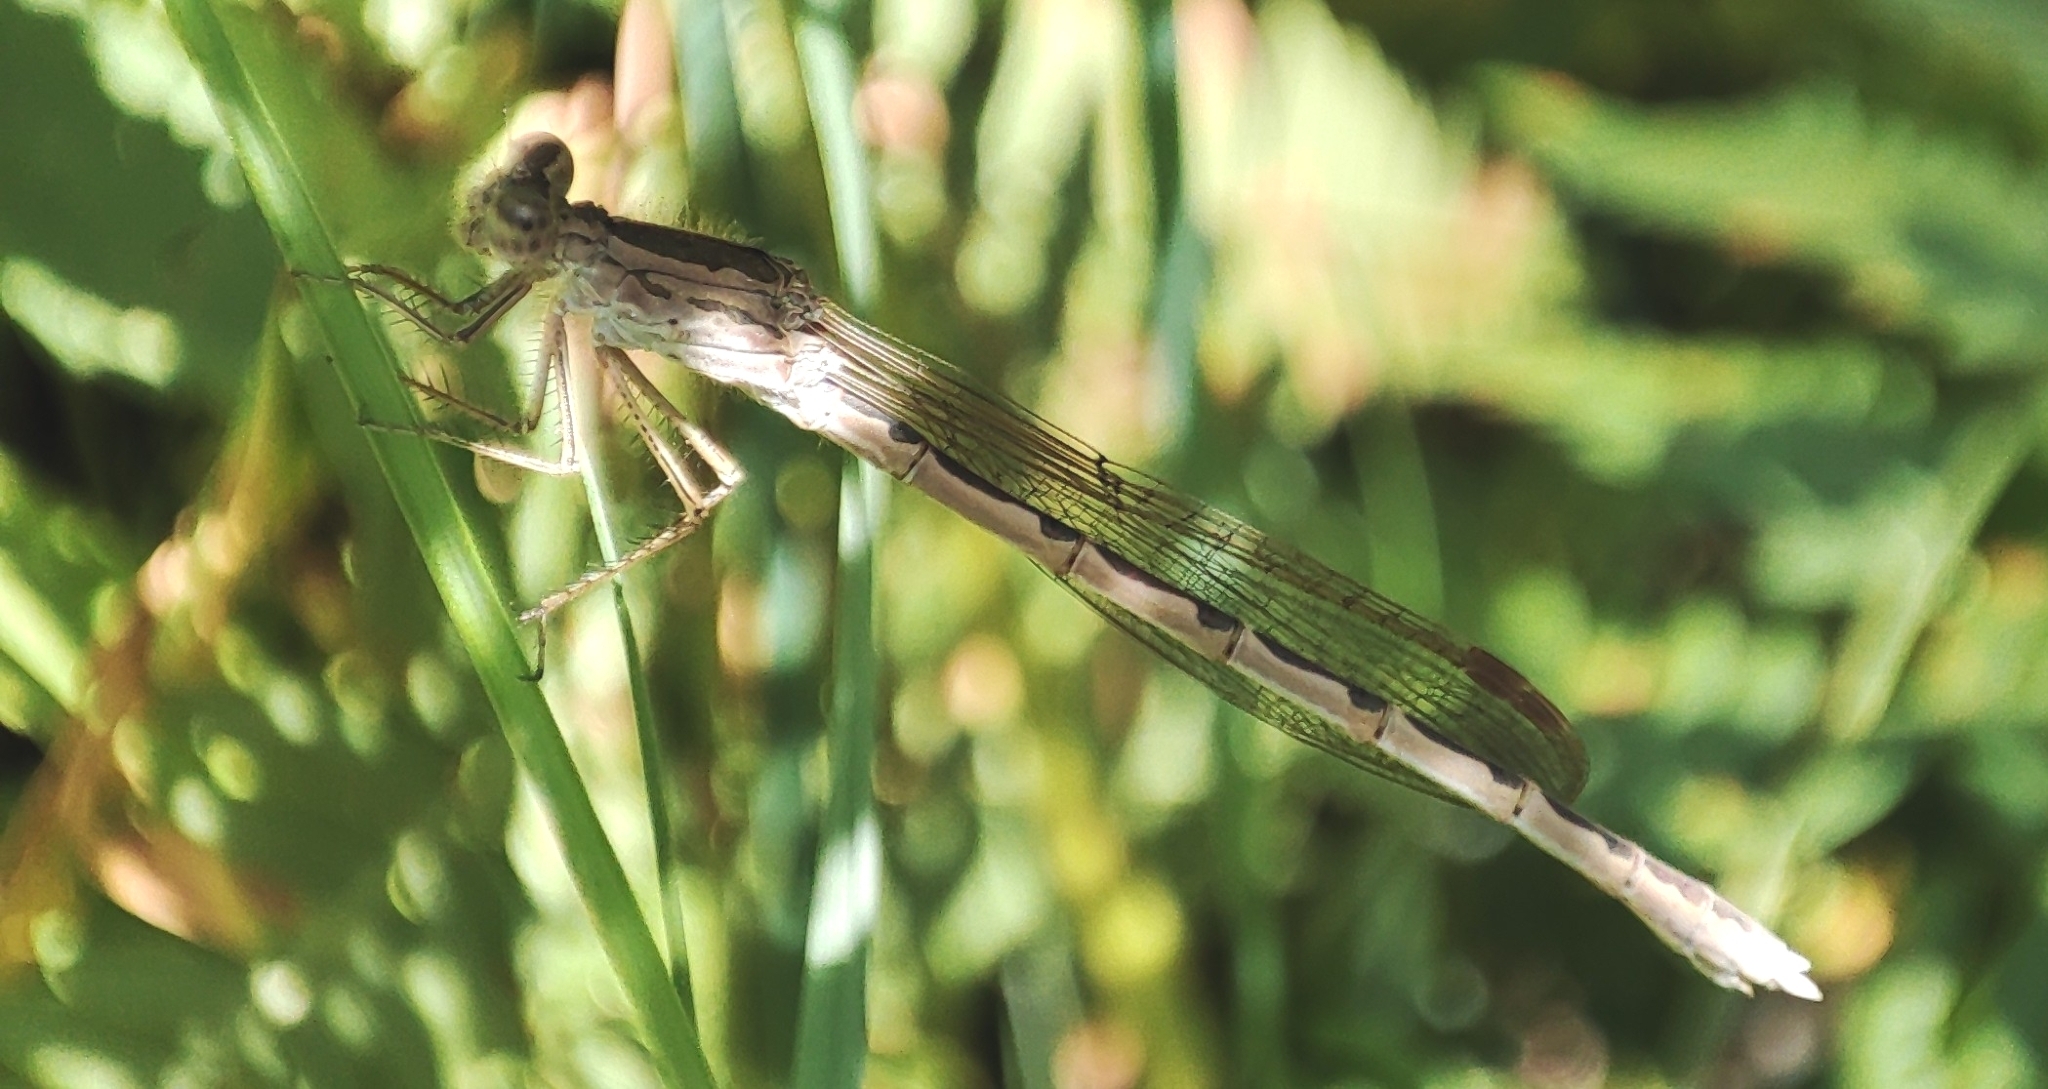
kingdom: Animalia
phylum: Arthropoda
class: Insecta
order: Odonata
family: Lestidae
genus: Sympecma
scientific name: Sympecma paedisca
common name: Siberian winter damsel
